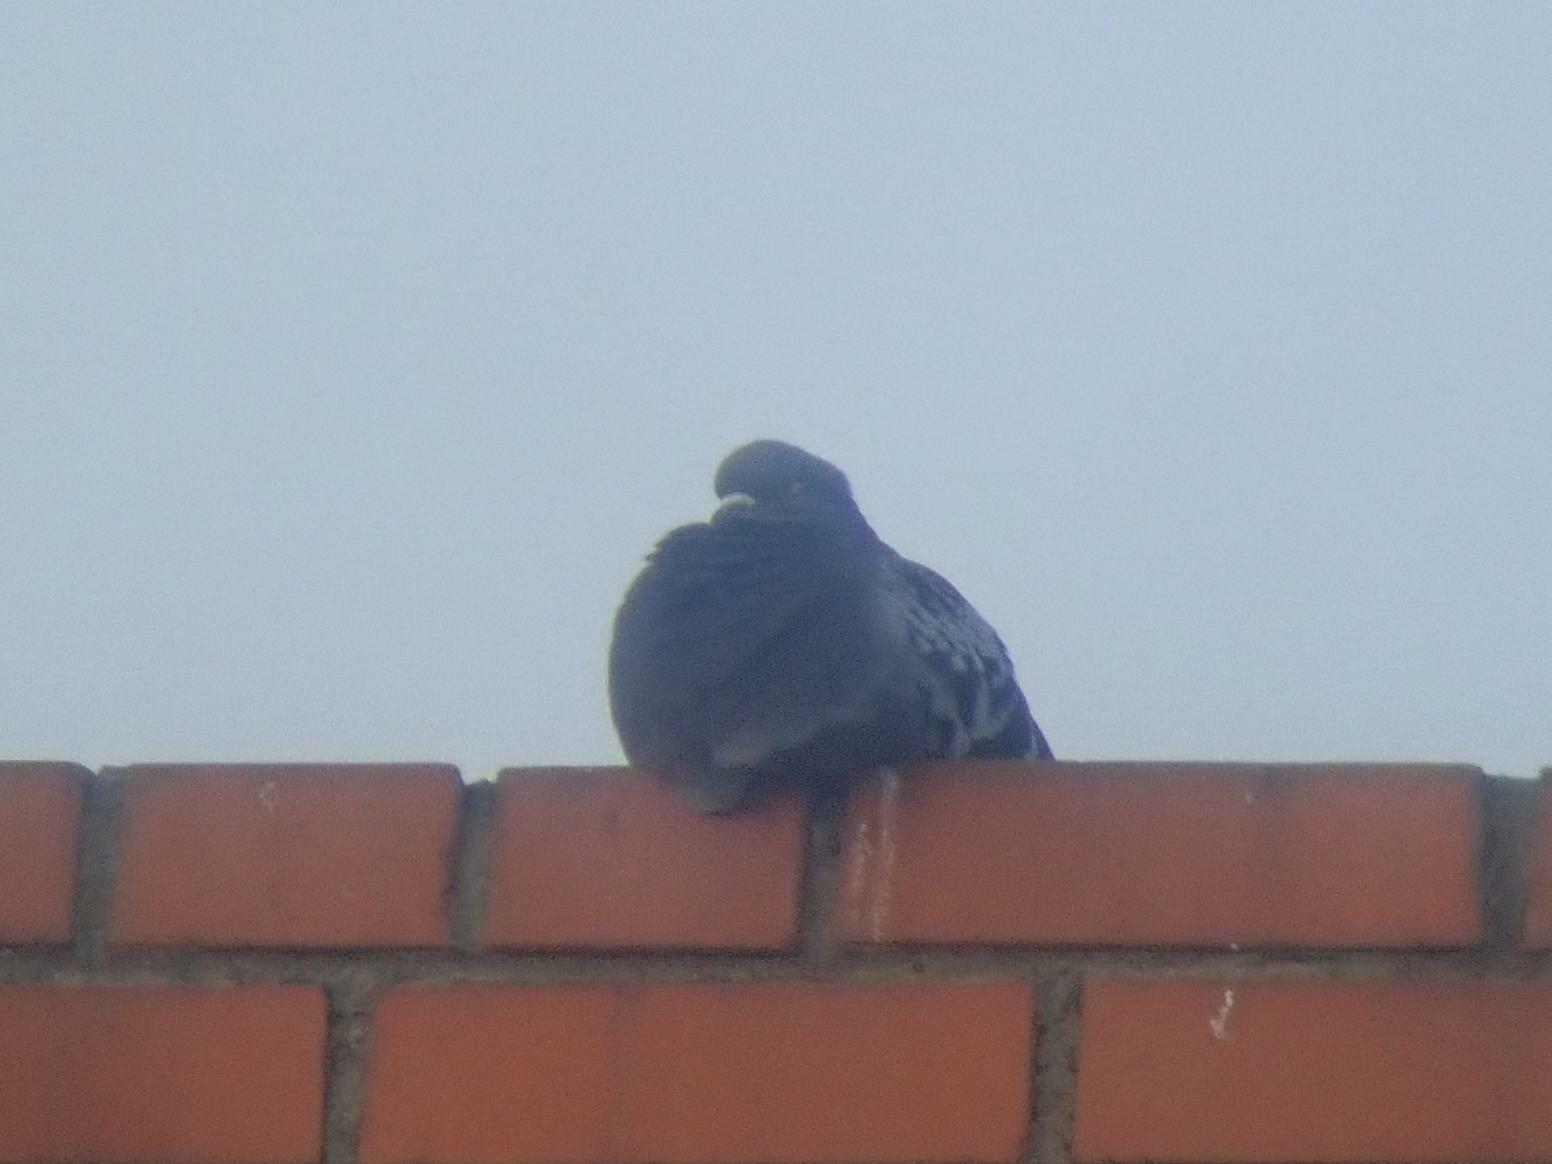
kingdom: Animalia
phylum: Chordata
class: Aves
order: Columbiformes
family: Columbidae
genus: Columba
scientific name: Columba livia
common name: Rock pigeon
